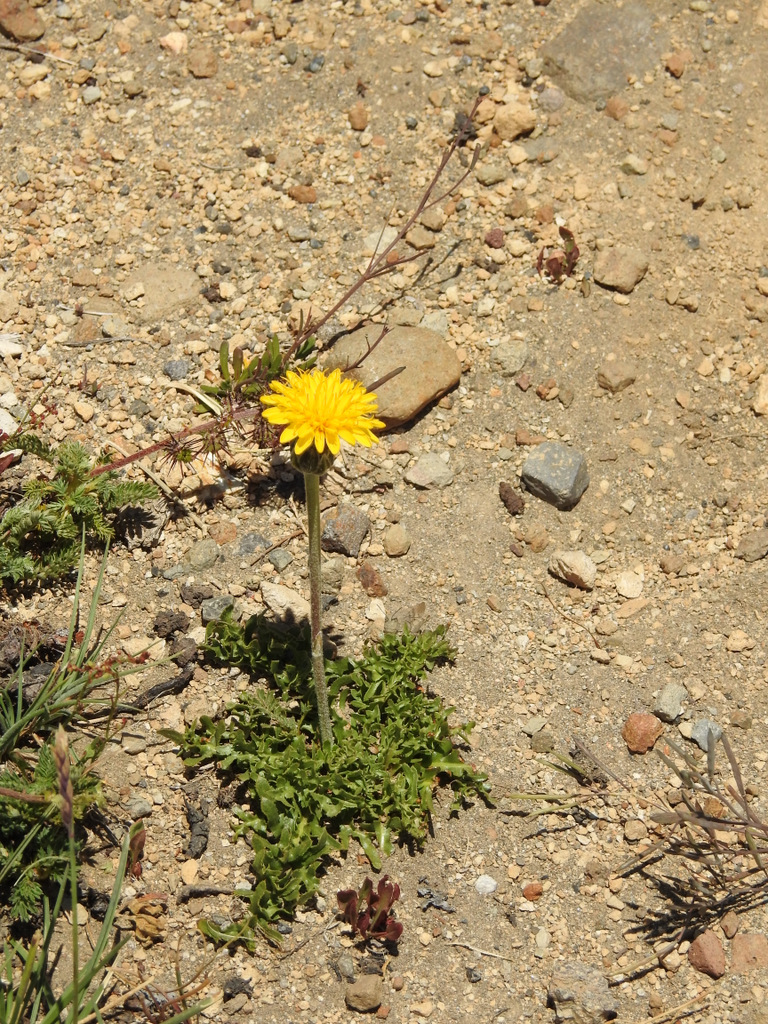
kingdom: Plantae
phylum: Tracheophyta
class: Magnoliopsida
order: Asterales
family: Asteraceae
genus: Hypochaeris
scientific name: Hypochaeris tenuifolia
